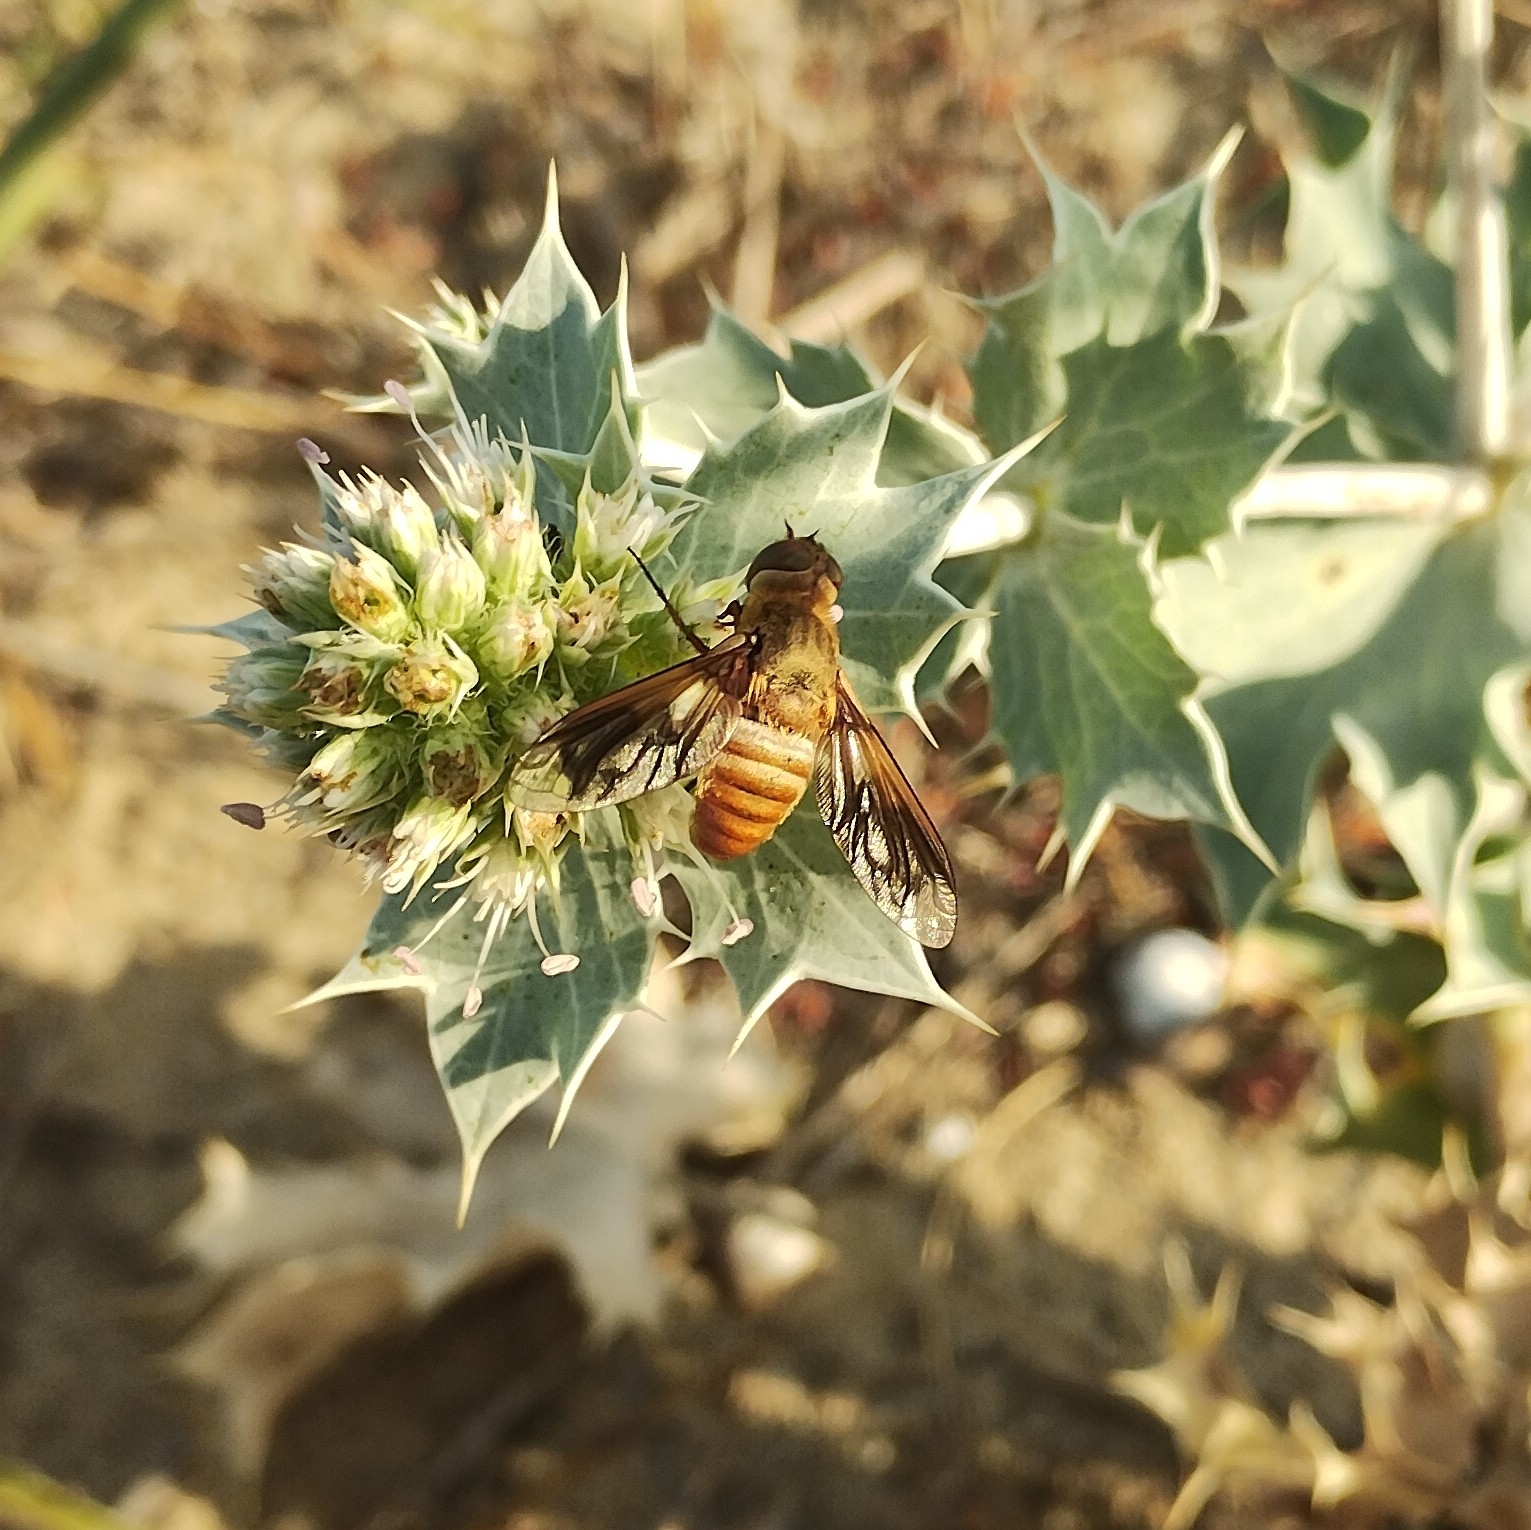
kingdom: Animalia
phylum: Arthropoda
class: Insecta
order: Diptera
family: Bombyliidae
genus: Ligyra
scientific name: Ligyra ferrea
